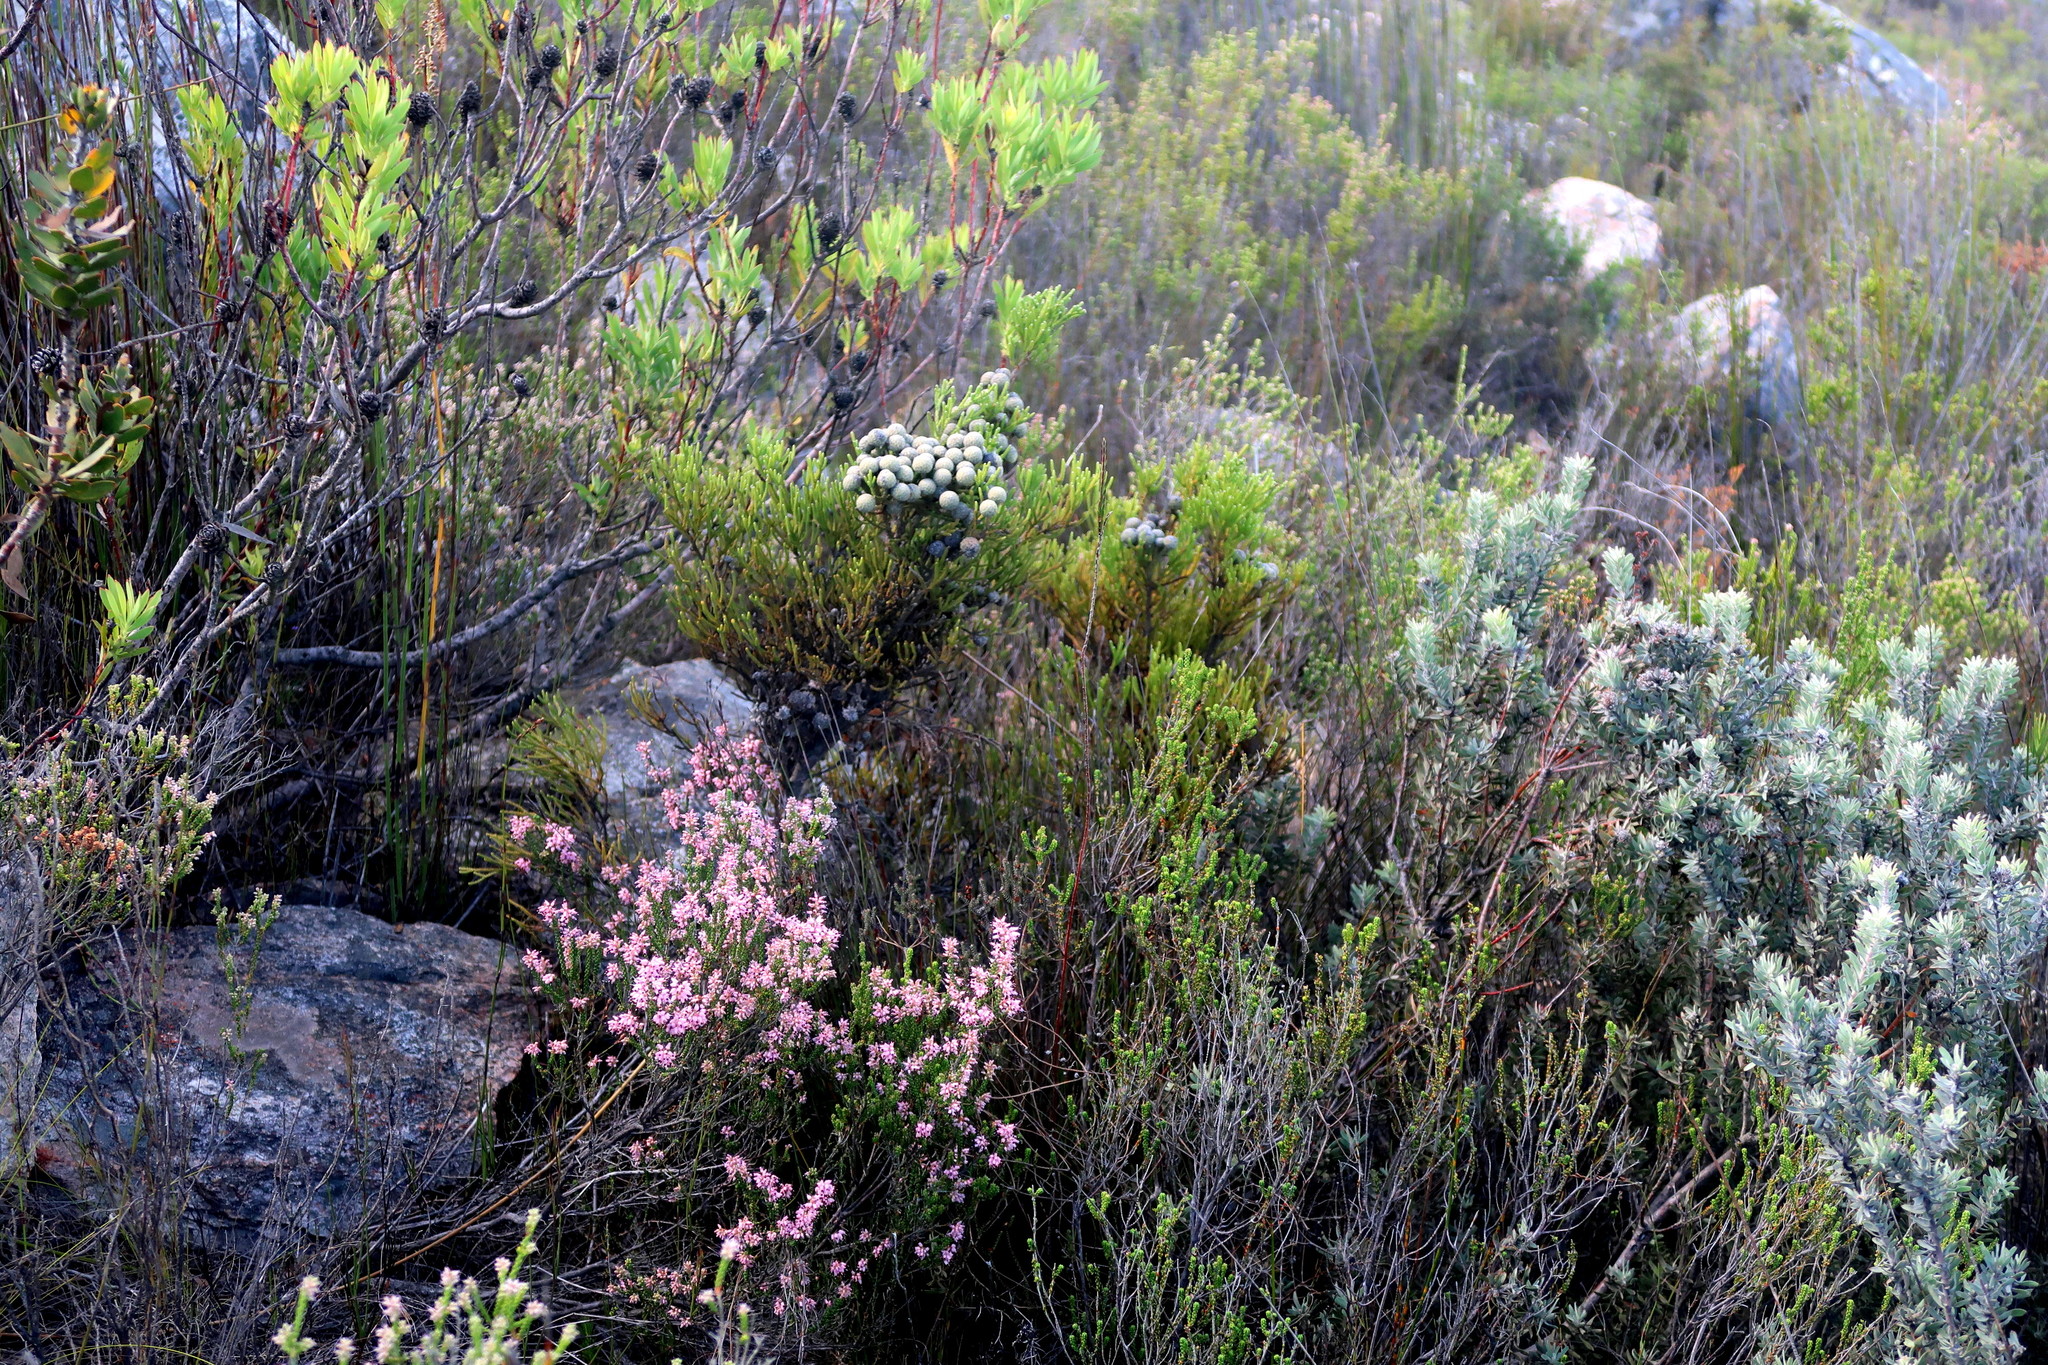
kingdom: Plantae
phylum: Tracheophyta
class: Magnoliopsida
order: Proteales
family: Proteaceae
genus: Leucospermum
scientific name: Leucospermum wittebergense
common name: Swartberg pincushion
